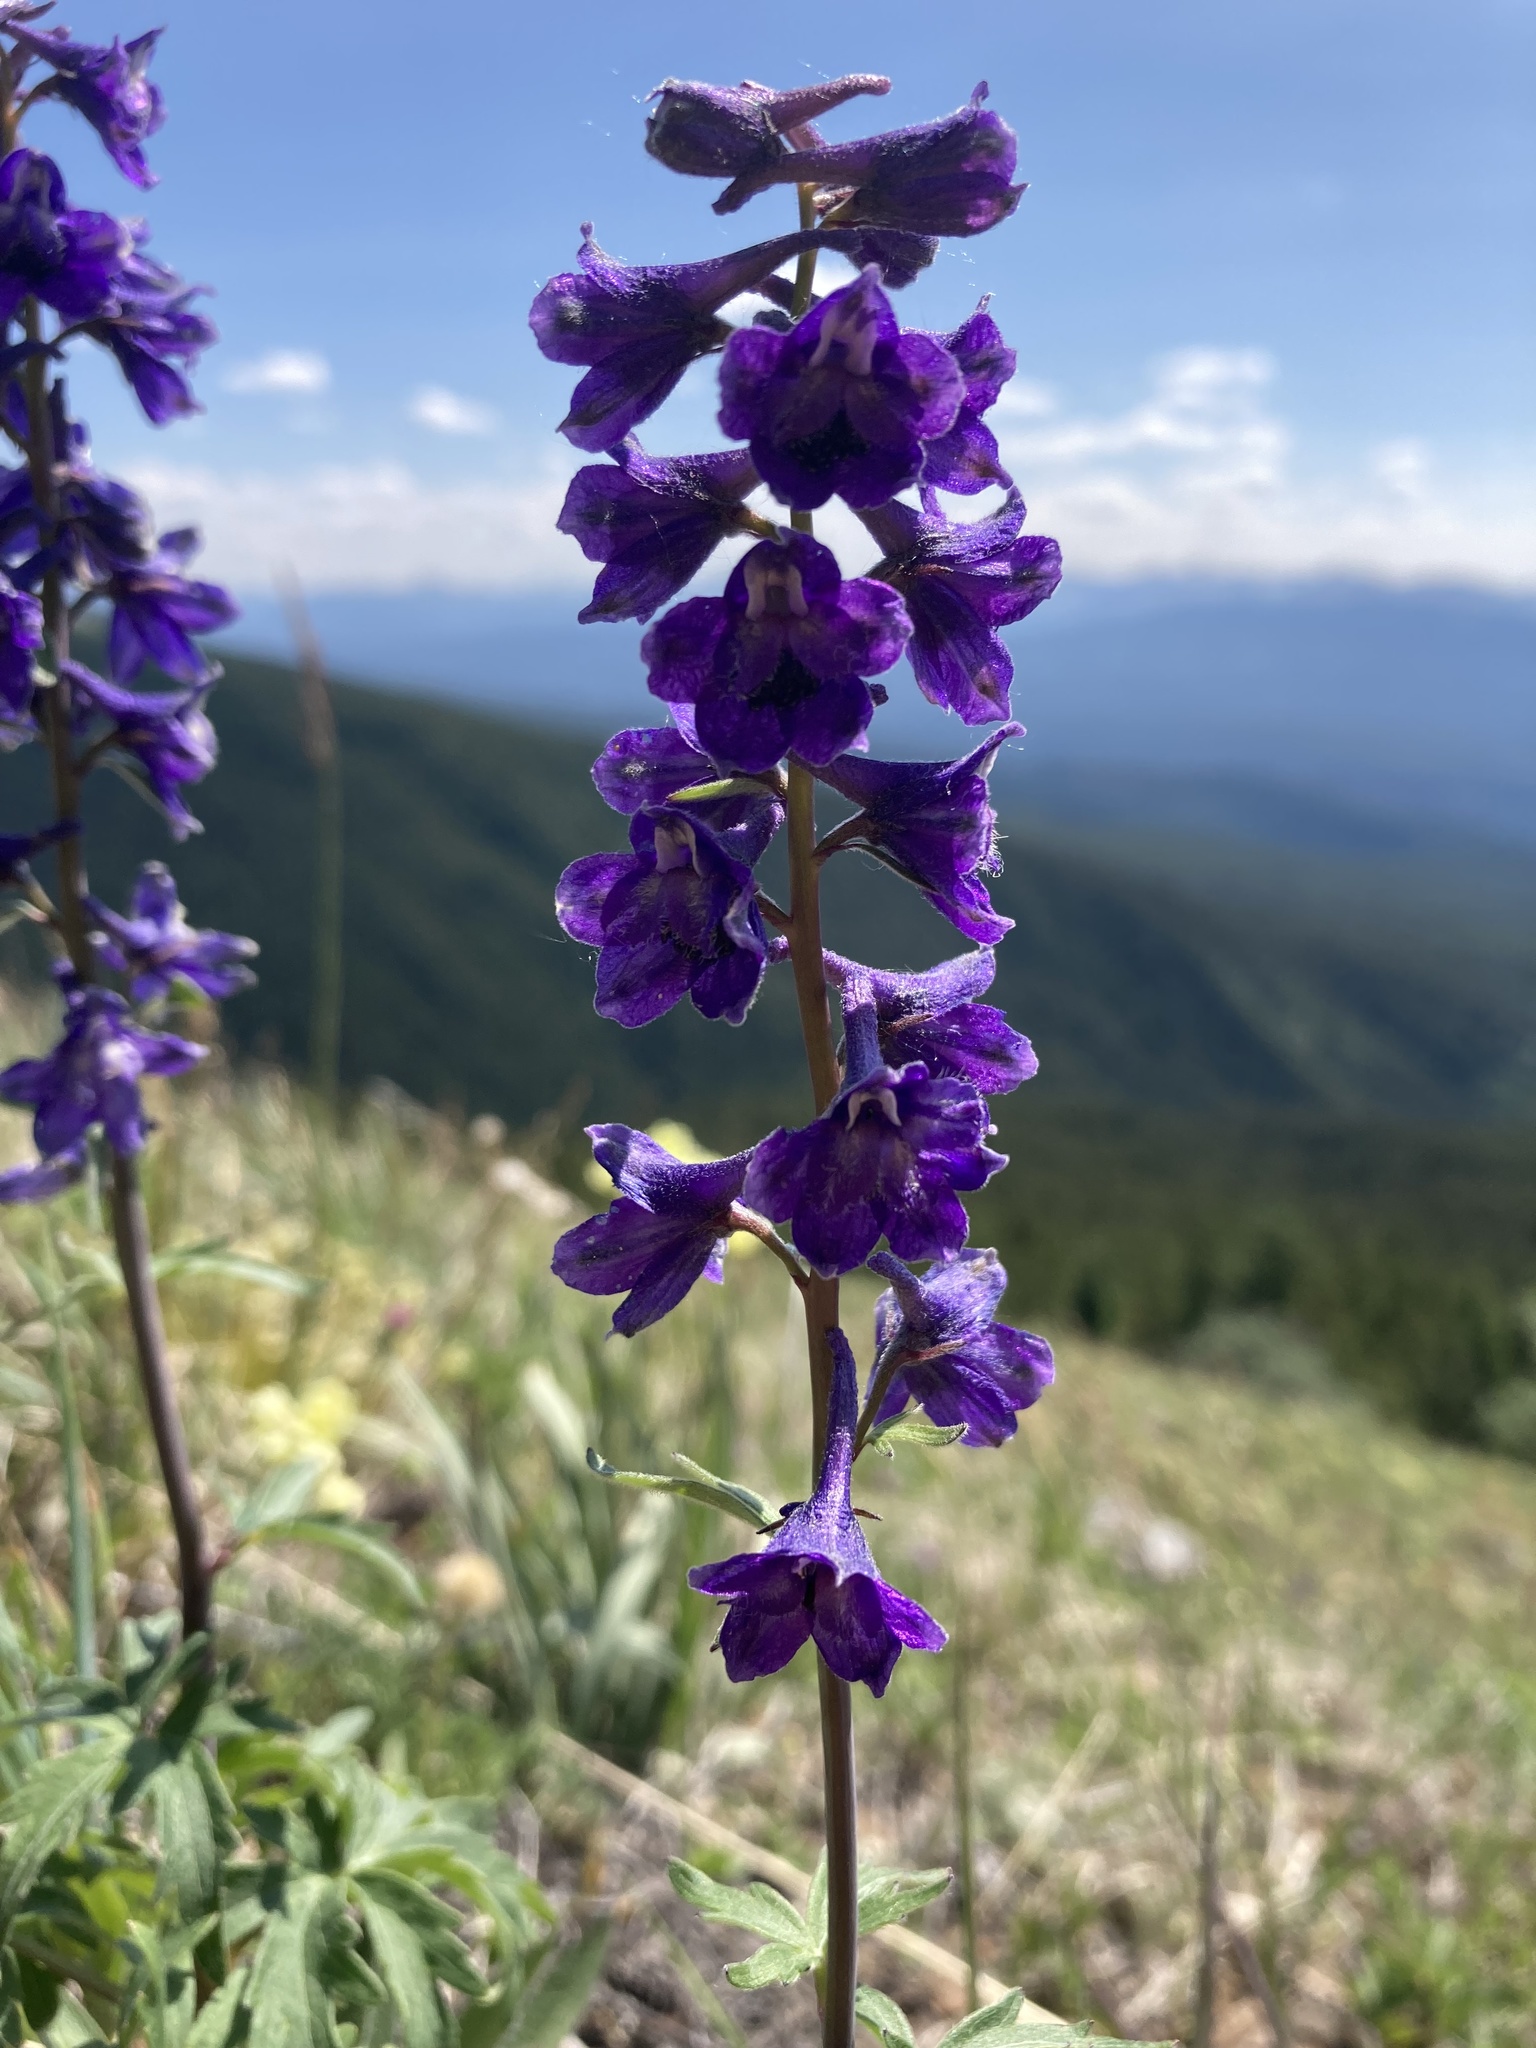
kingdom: Plantae
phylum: Tracheophyta
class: Magnoliopsida
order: Ranunculales
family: Ranunculaceae
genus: Delphinium
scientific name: Delphinium glaucum
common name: Brown's larkspur
